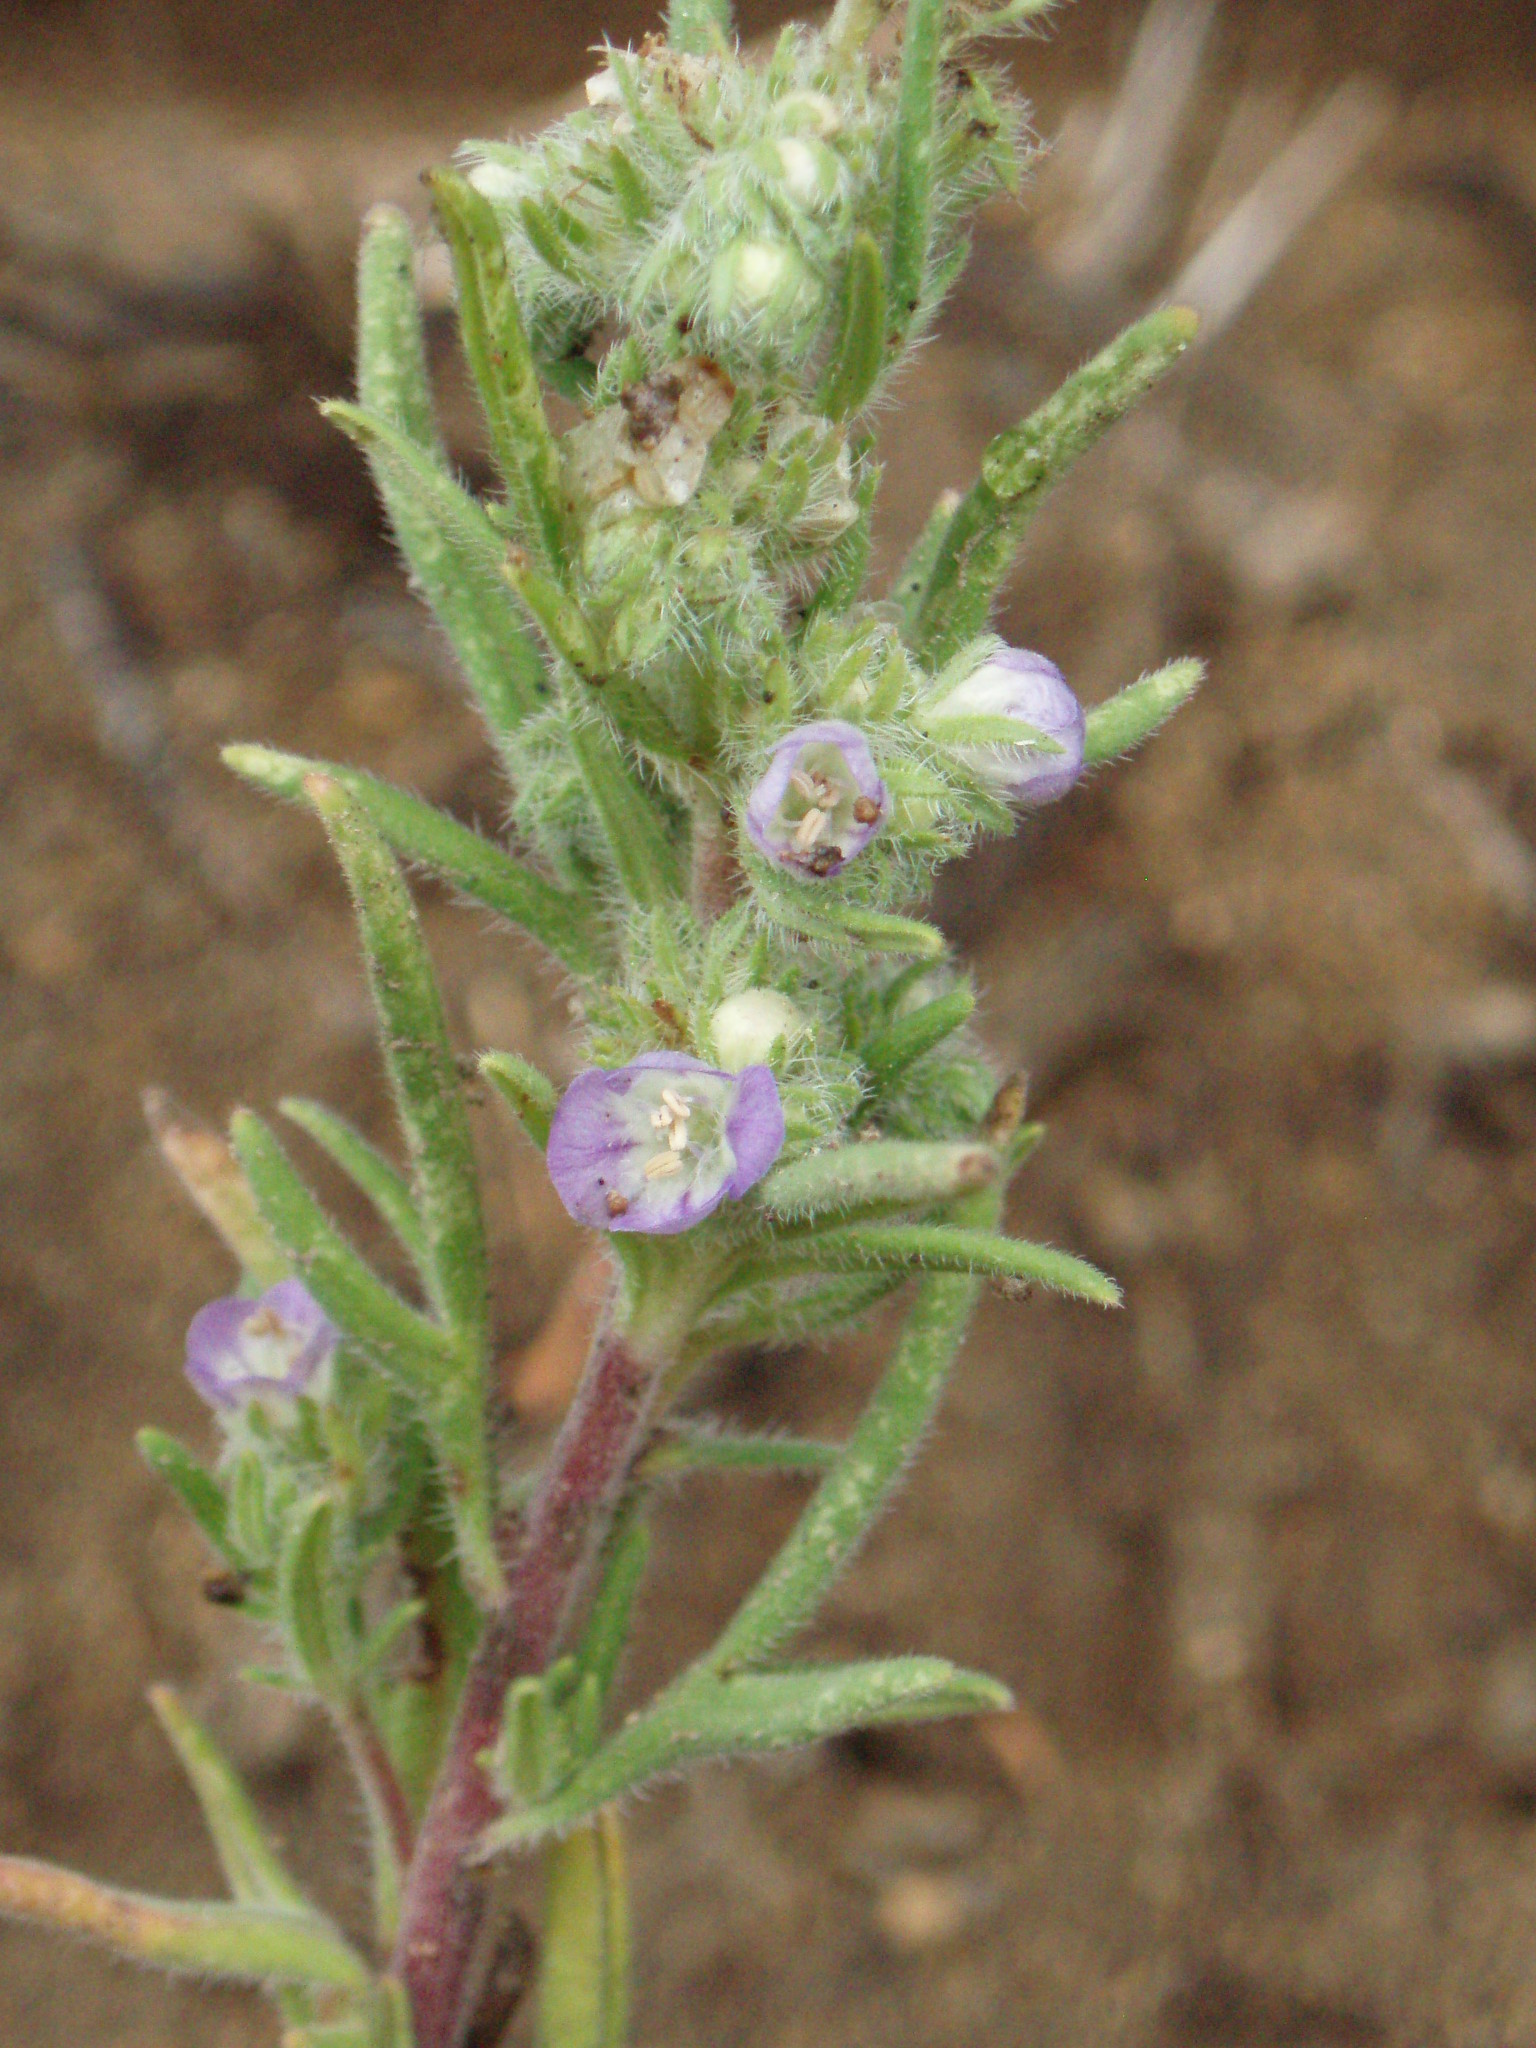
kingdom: Plantae
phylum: Tracheophyta
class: Magnoliopsida
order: Boraginales
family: Hydrophyllaceae
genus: Phacelia
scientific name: Phacelia linearis
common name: Linear-leaved phacelia
